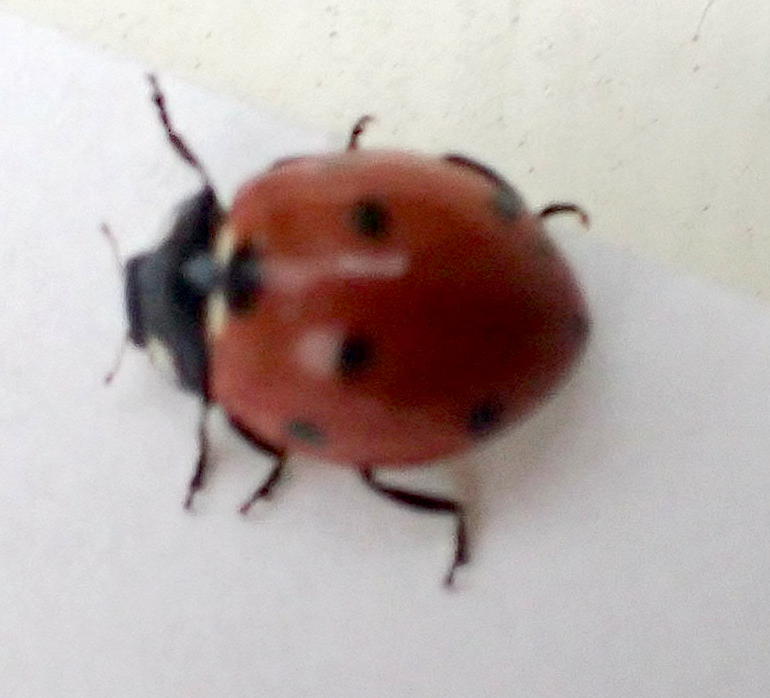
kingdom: Animalia
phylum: Arthropoda
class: Insecta
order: Coleoptera
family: Coccinellidae
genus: Coccinella
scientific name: Coccinella septempunctata
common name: Sevenspotted lady beetle
